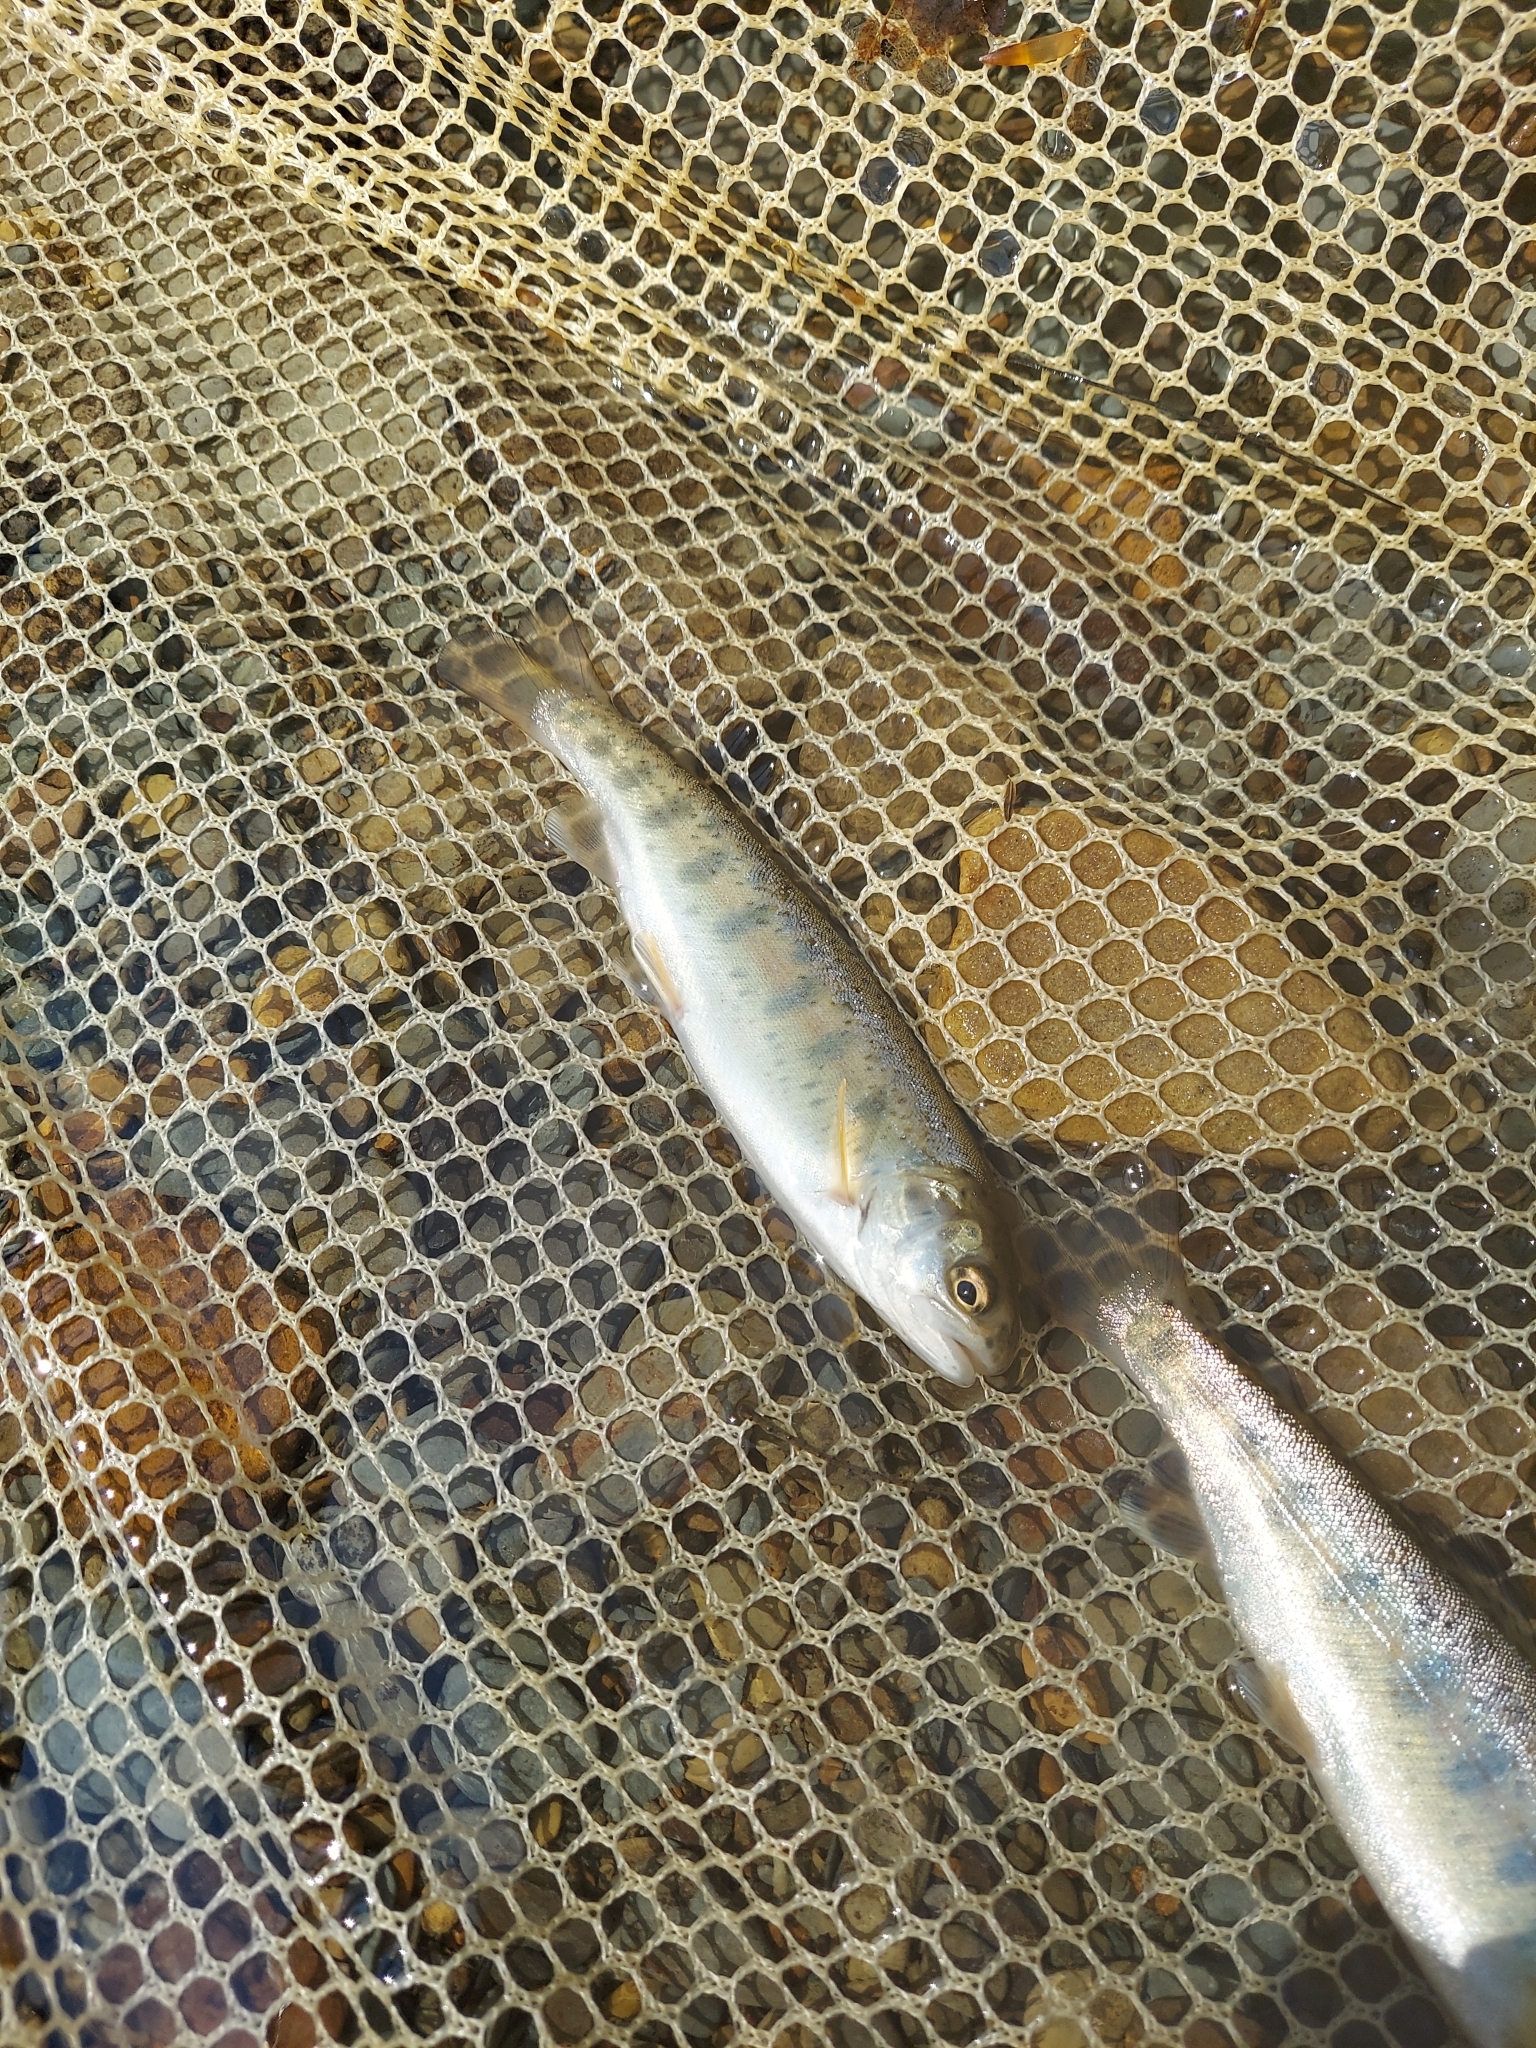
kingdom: Animalia
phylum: Chordata
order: Salmoniformes
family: Salmonidae
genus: Oncorhynchus
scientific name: Oncorhynchus mykiss
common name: Rainbow trout
